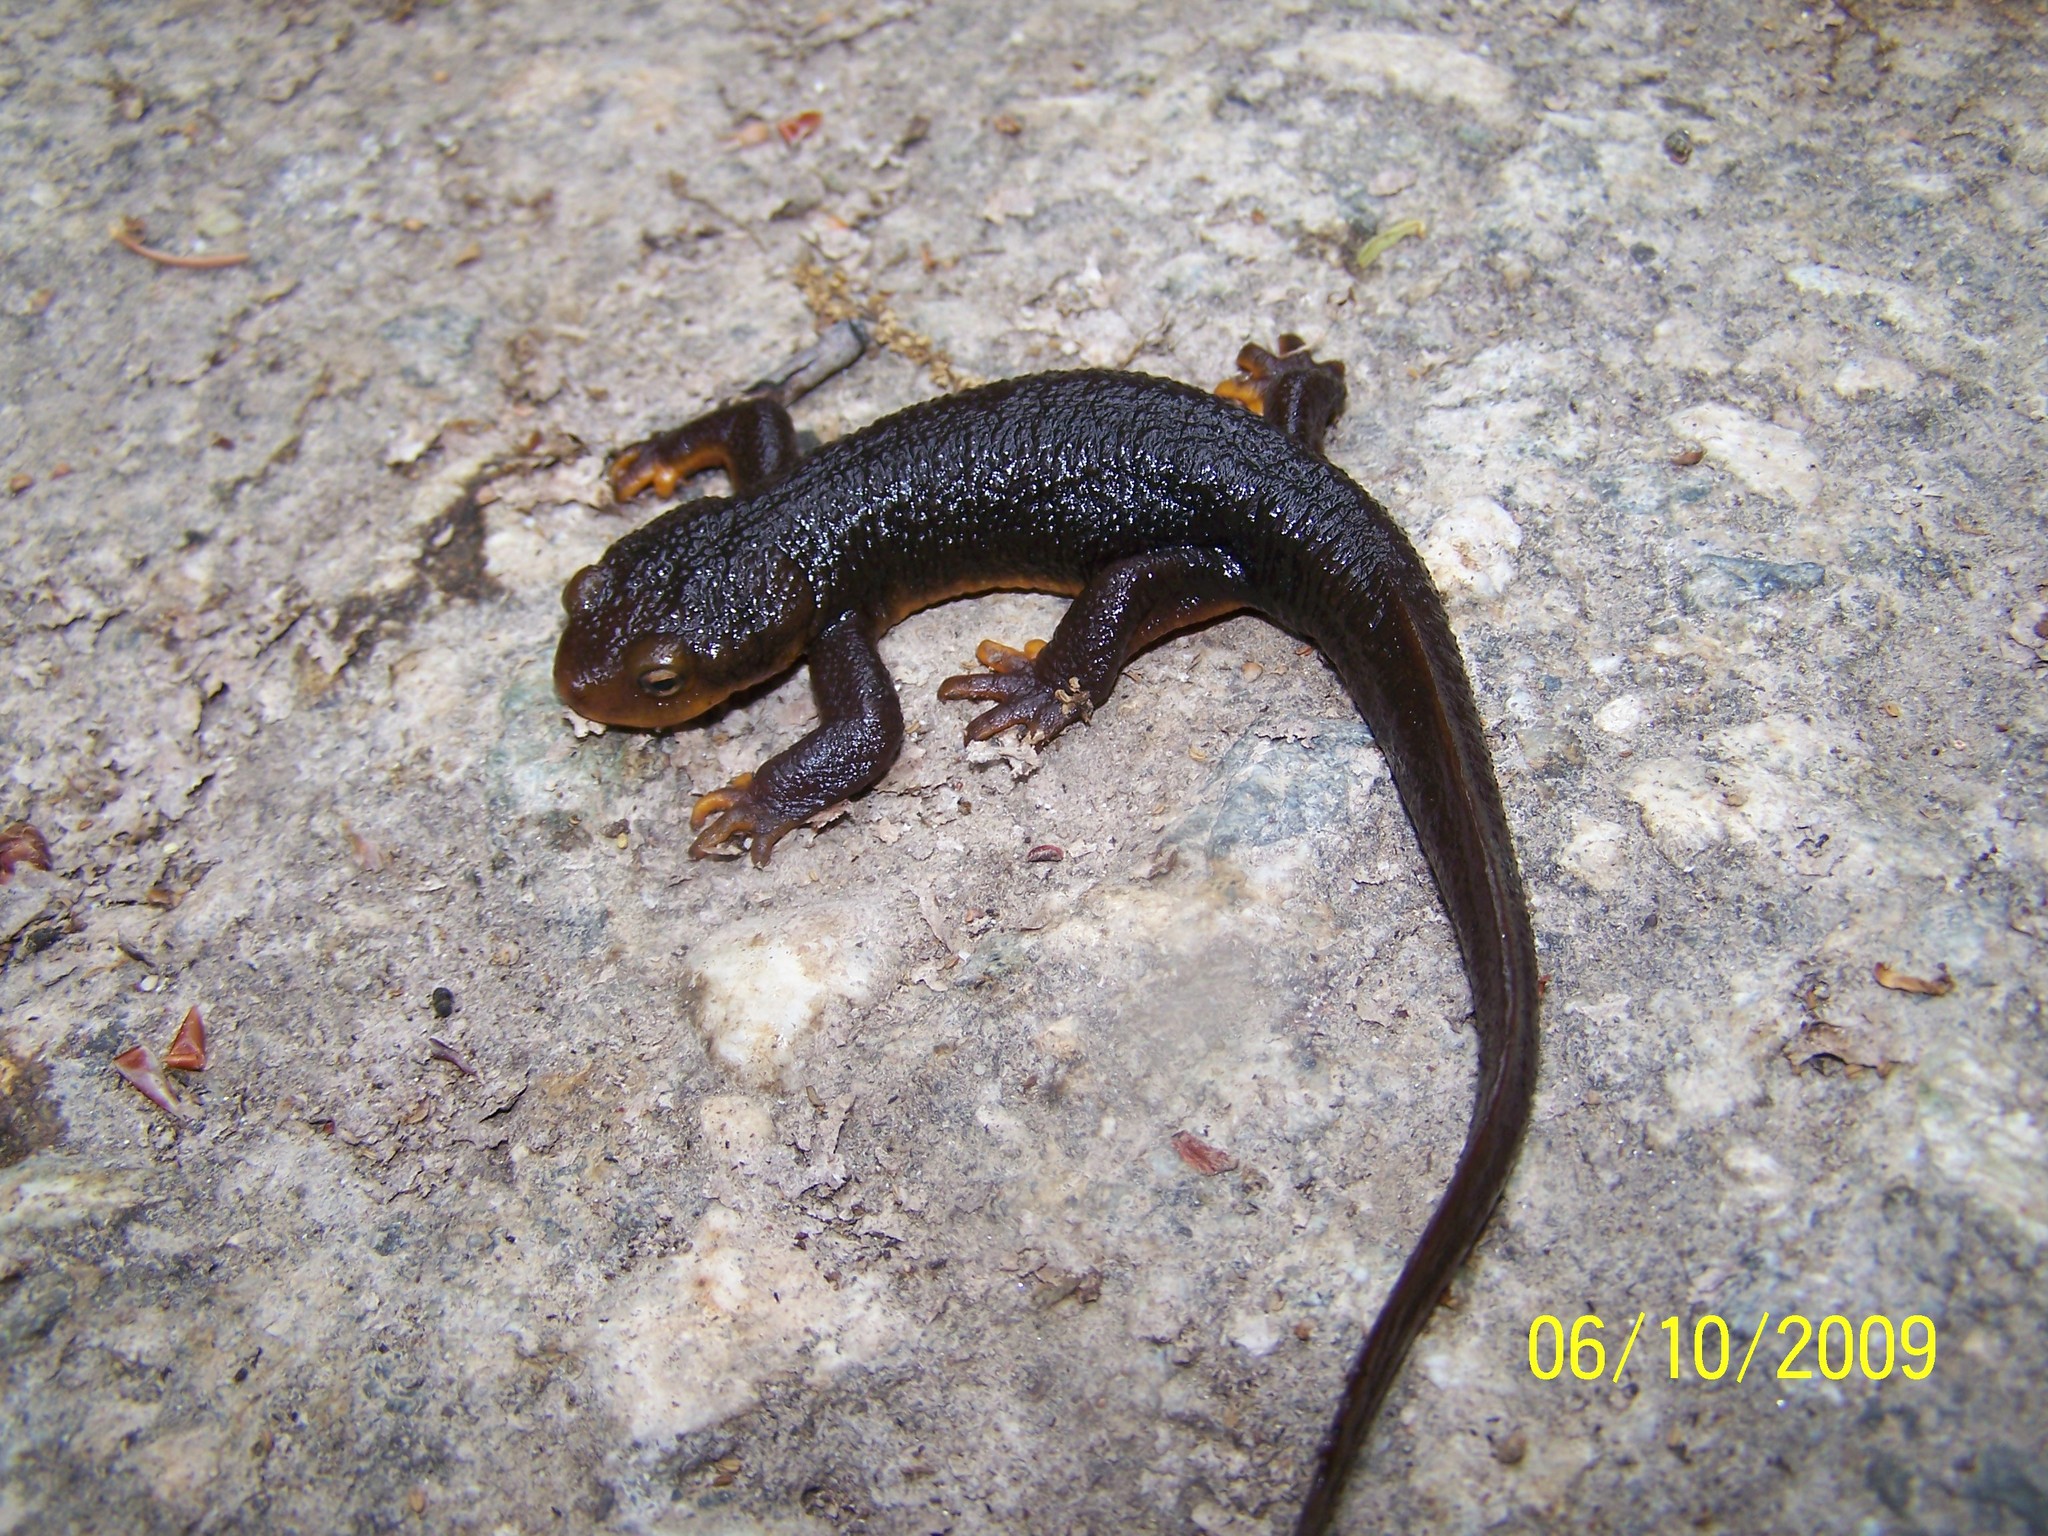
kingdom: Animalia
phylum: Chordata
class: Amphibia
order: Caudata
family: Salamandridae
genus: Taricha
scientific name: Taricha torosa
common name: California newt
